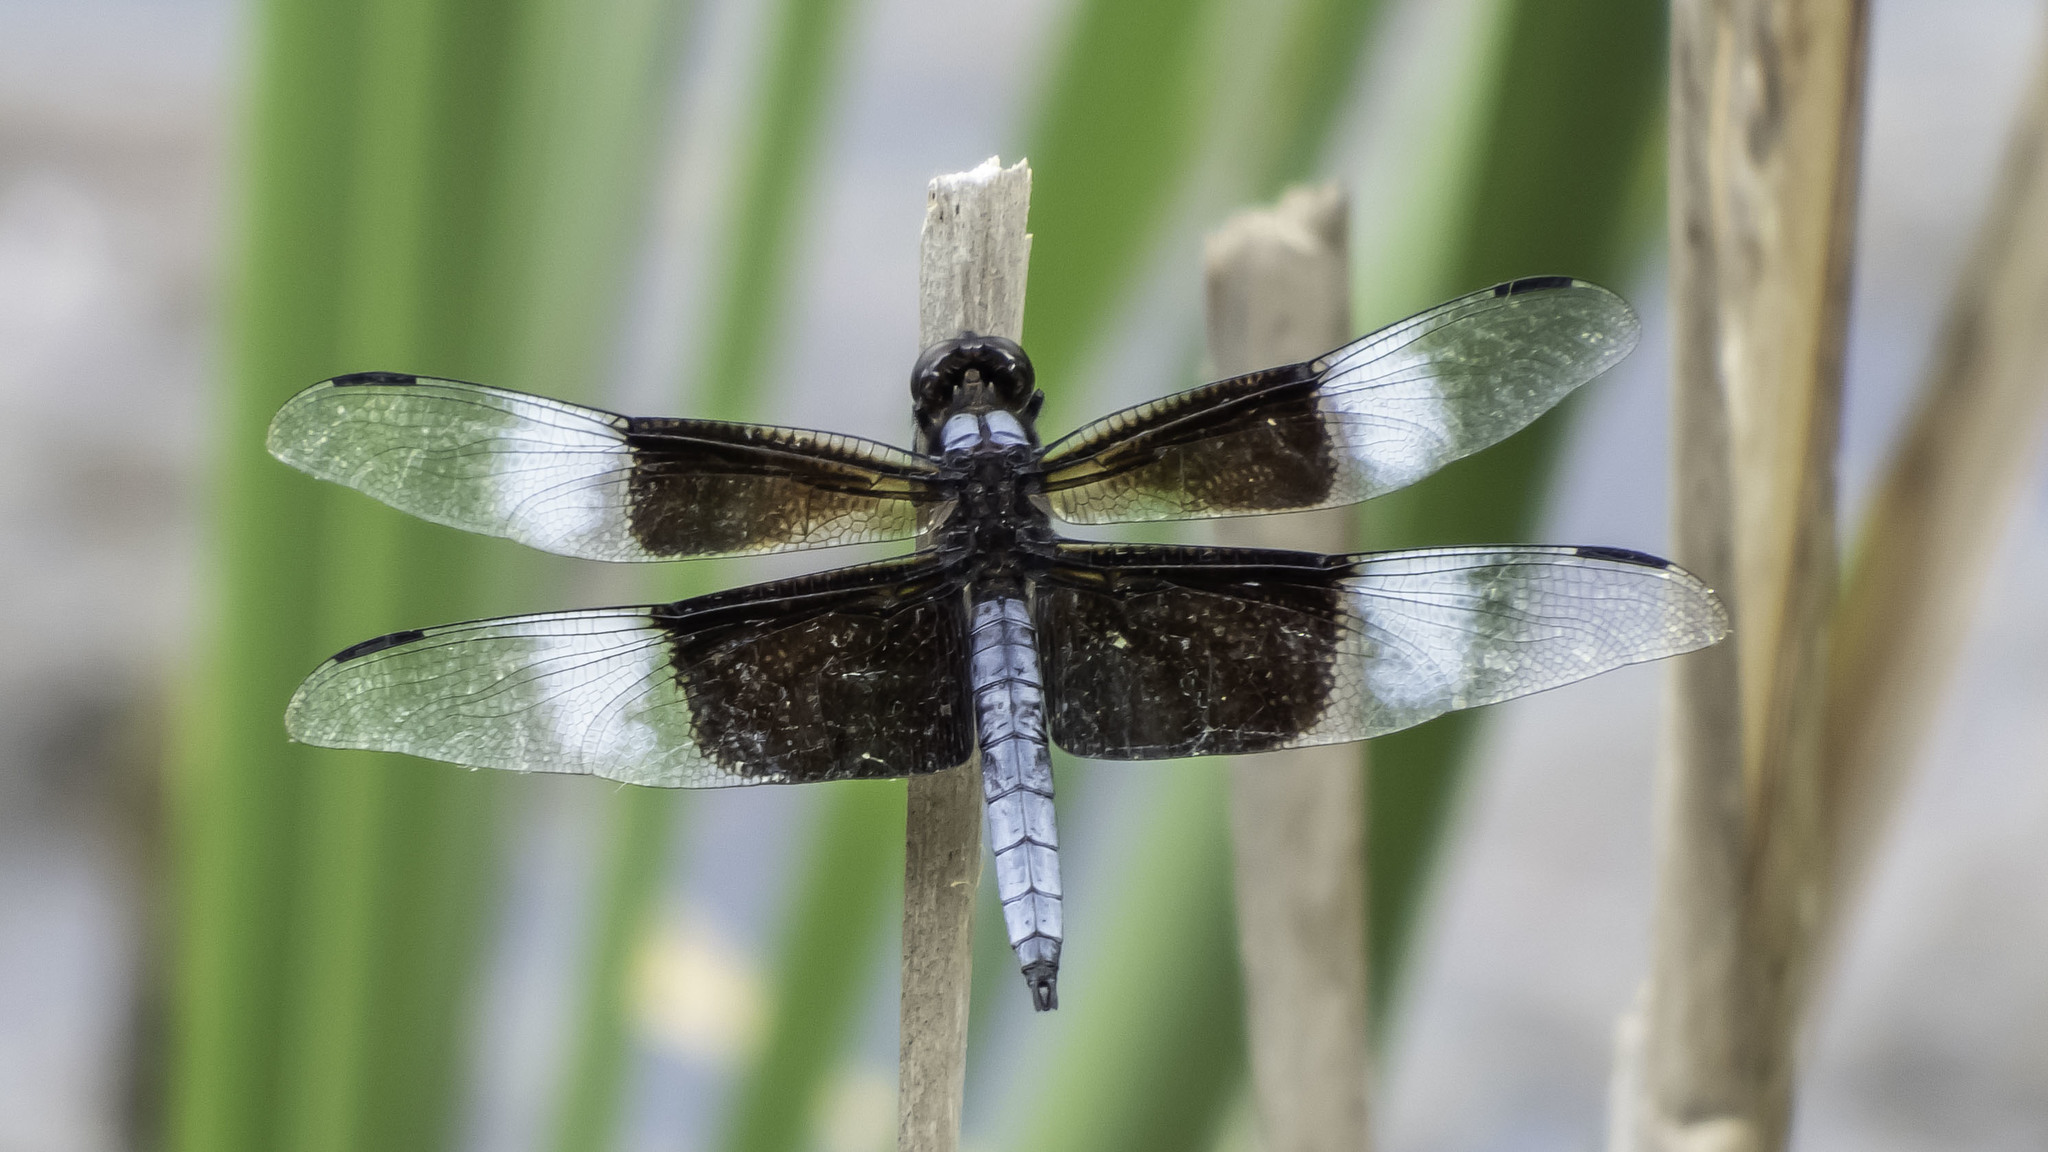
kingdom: Animalia
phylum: Arthropoda
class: Insecta
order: Odonata
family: Libellulidae
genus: Libellula
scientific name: Libellula luctuosa
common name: Widow skimmer
